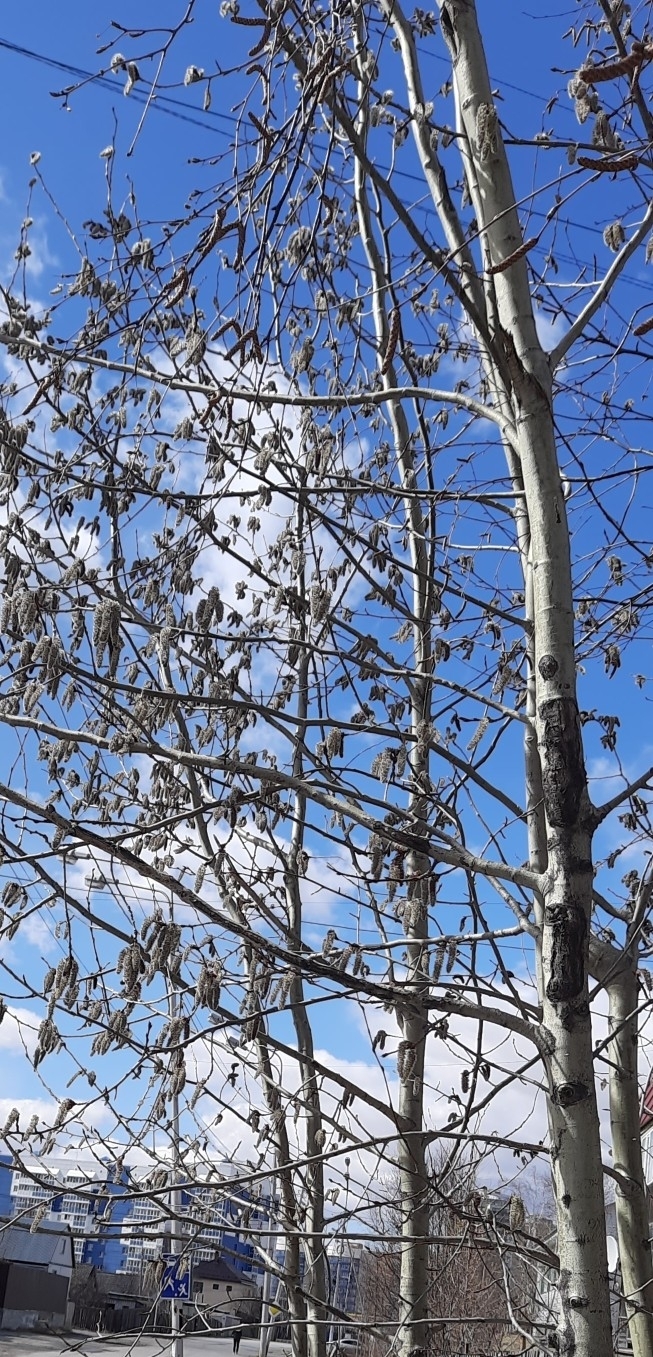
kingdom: Plantae
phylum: Tracheophyta
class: Magnoliopsida
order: Malpighiales
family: Salicaceae
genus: Populus
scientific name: Populus tremula
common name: European aspen
